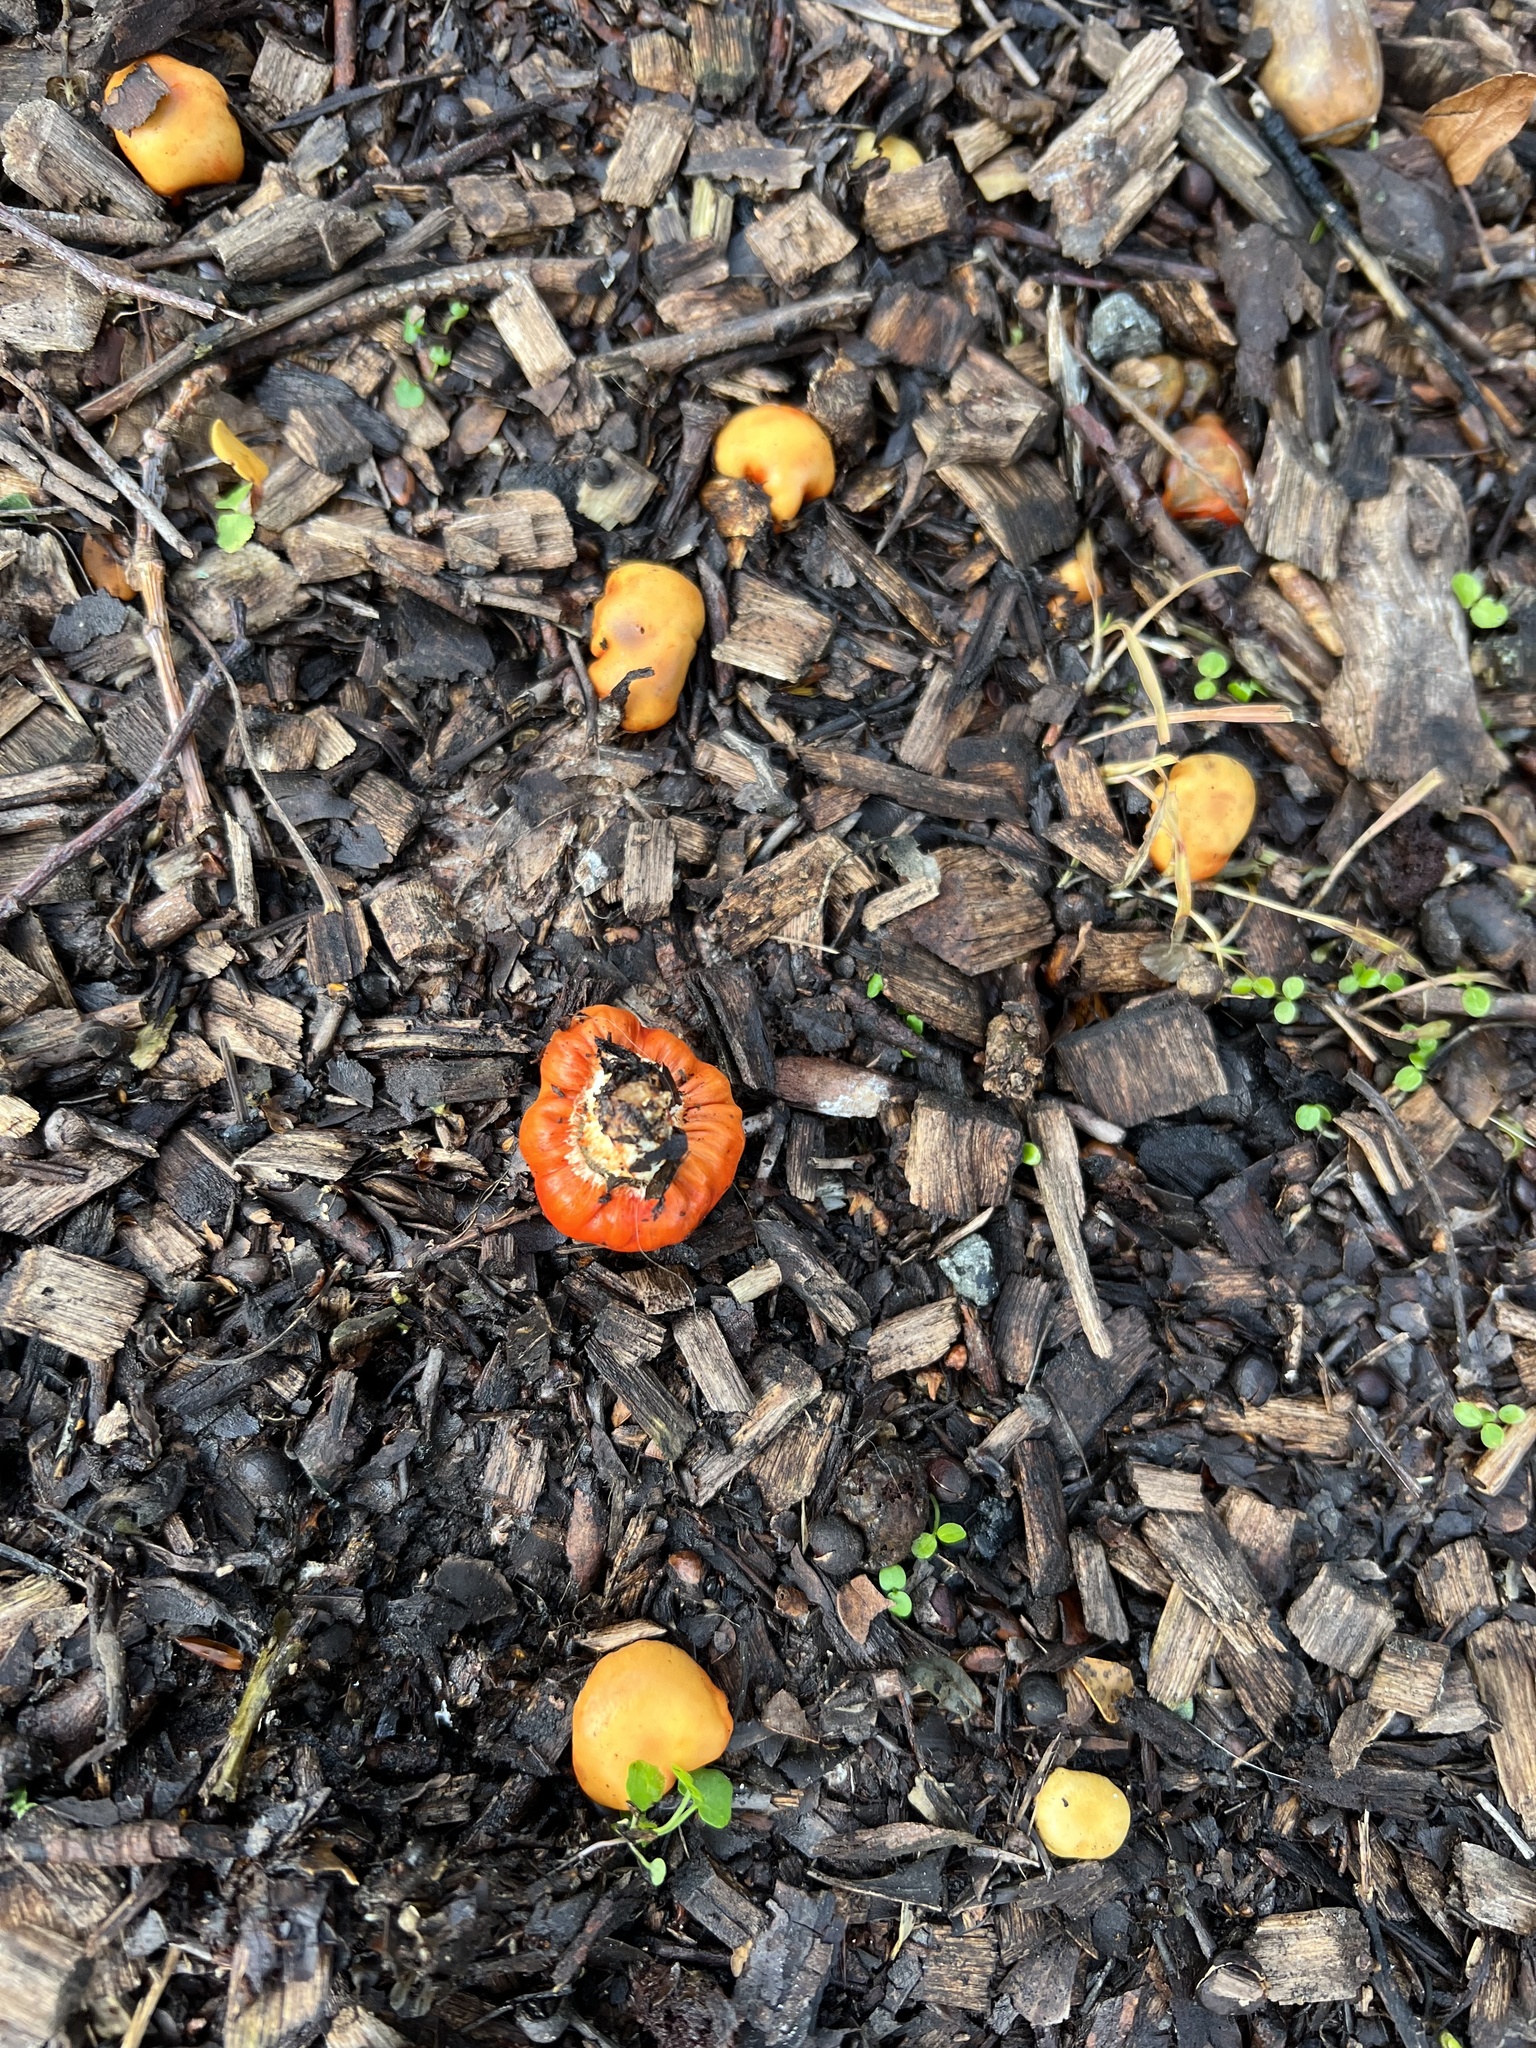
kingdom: Fungi
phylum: Basidiomycota
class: Agaricomycetes
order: Agaricales
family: Strophariaceae
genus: Leratiomyces
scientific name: Leratiomyces erythrocephalus
